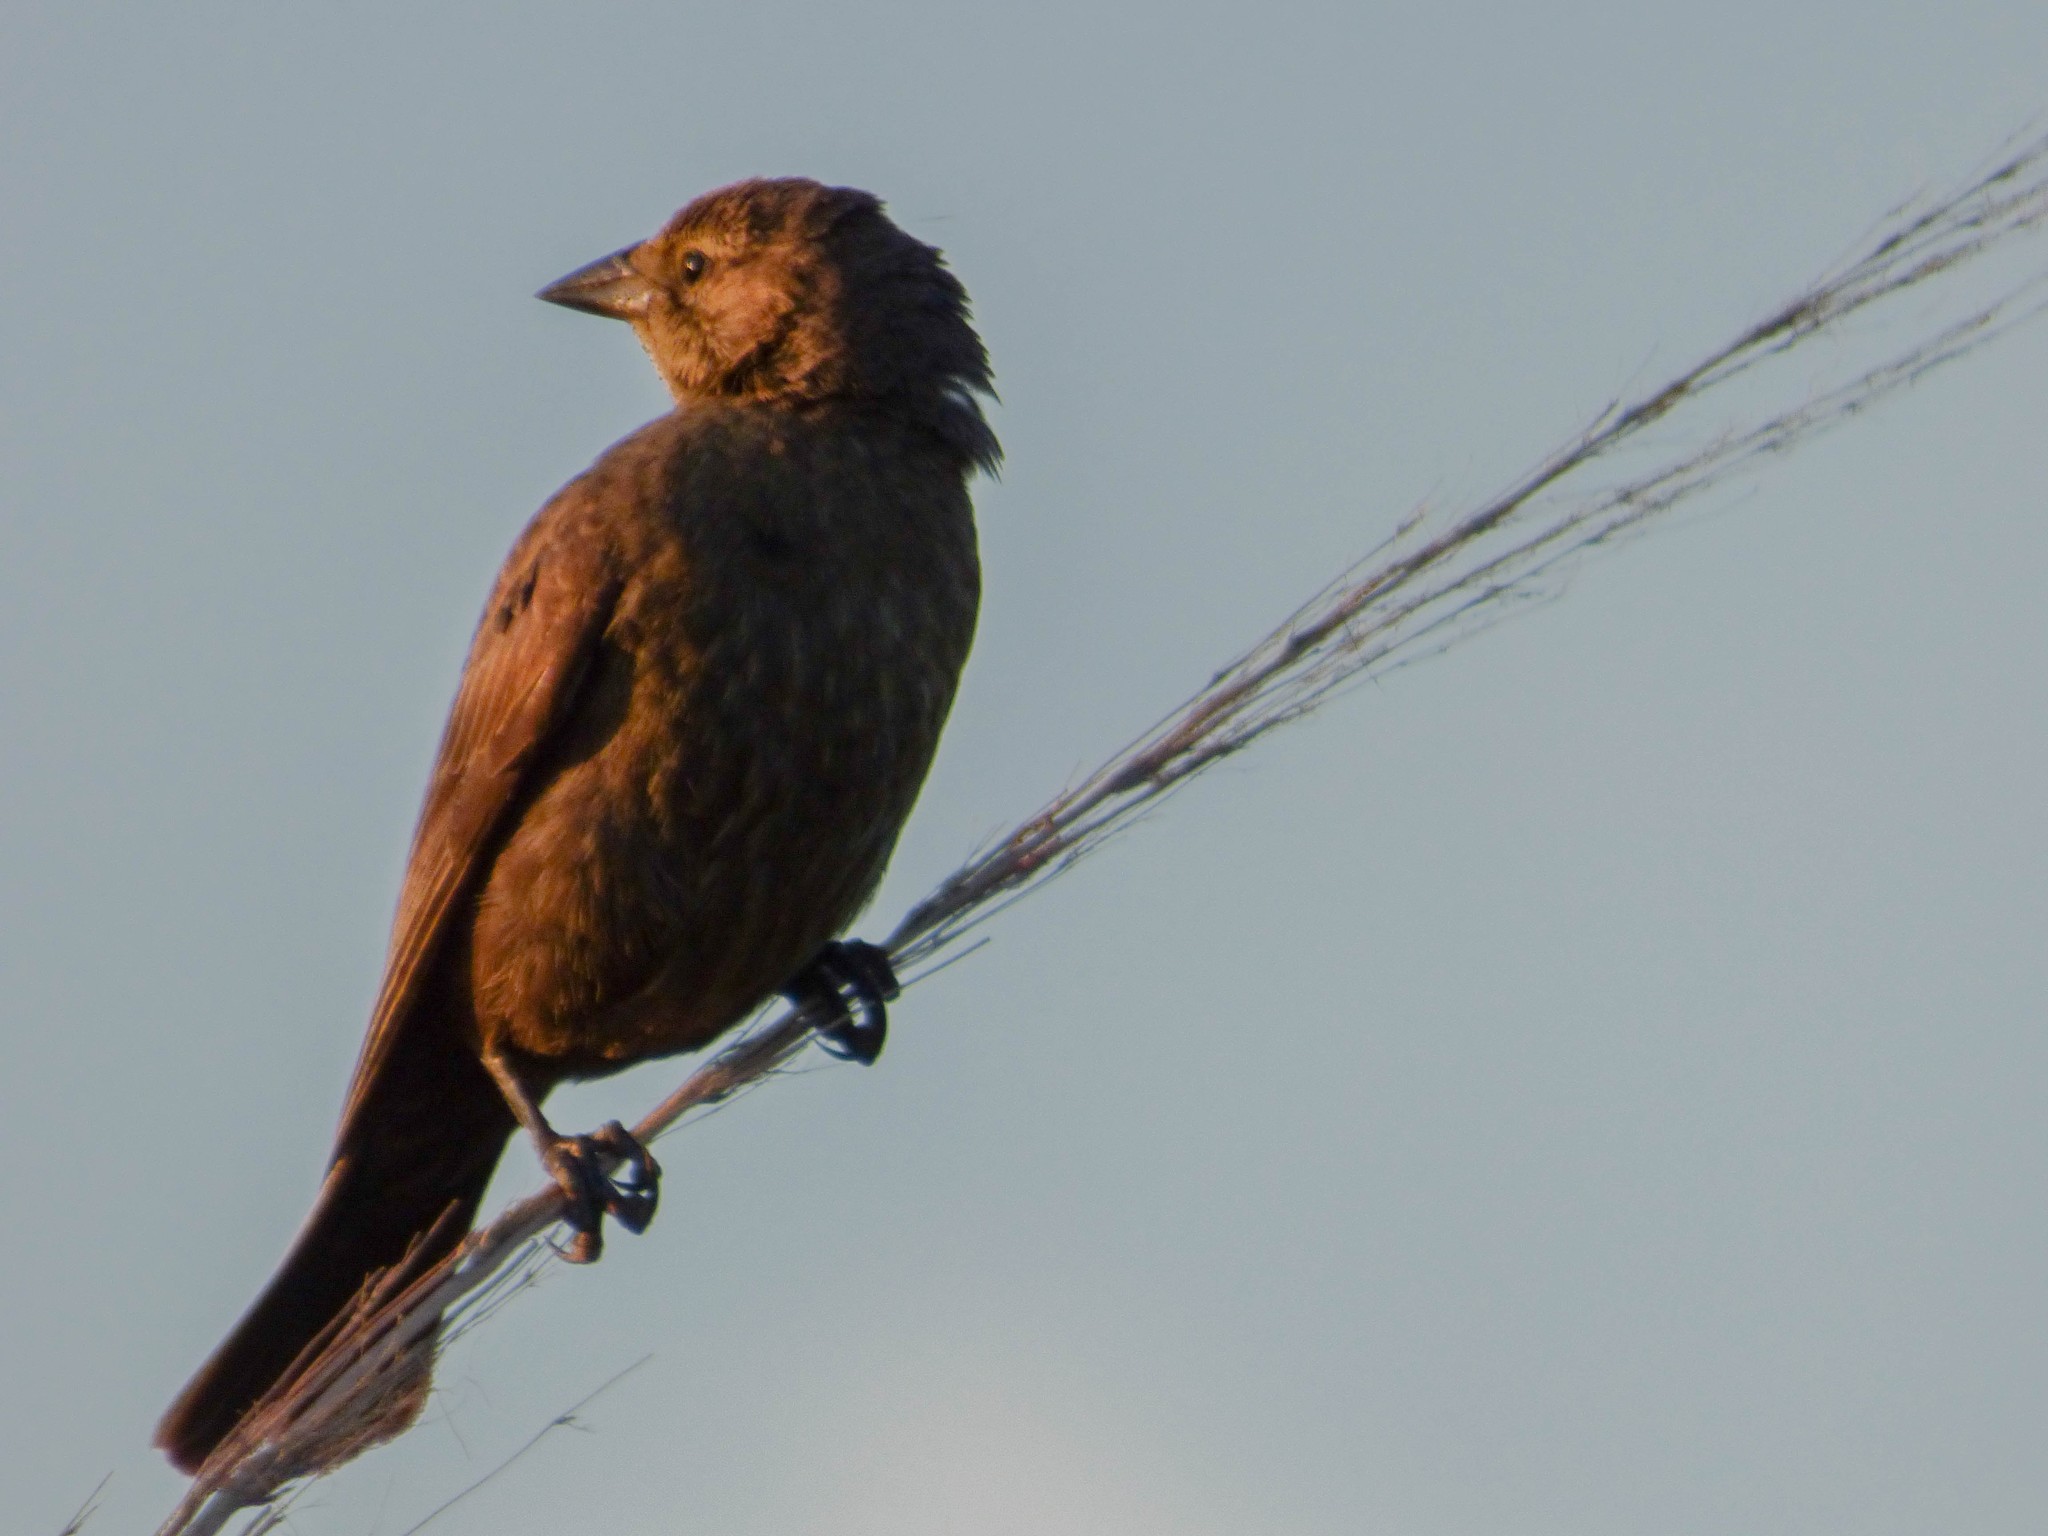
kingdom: Animalia
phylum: Chordata
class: Aves
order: Passeriformes
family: Icteridae
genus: Molothrus
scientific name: Molothrus bonariensis
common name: Shiny cowbird
